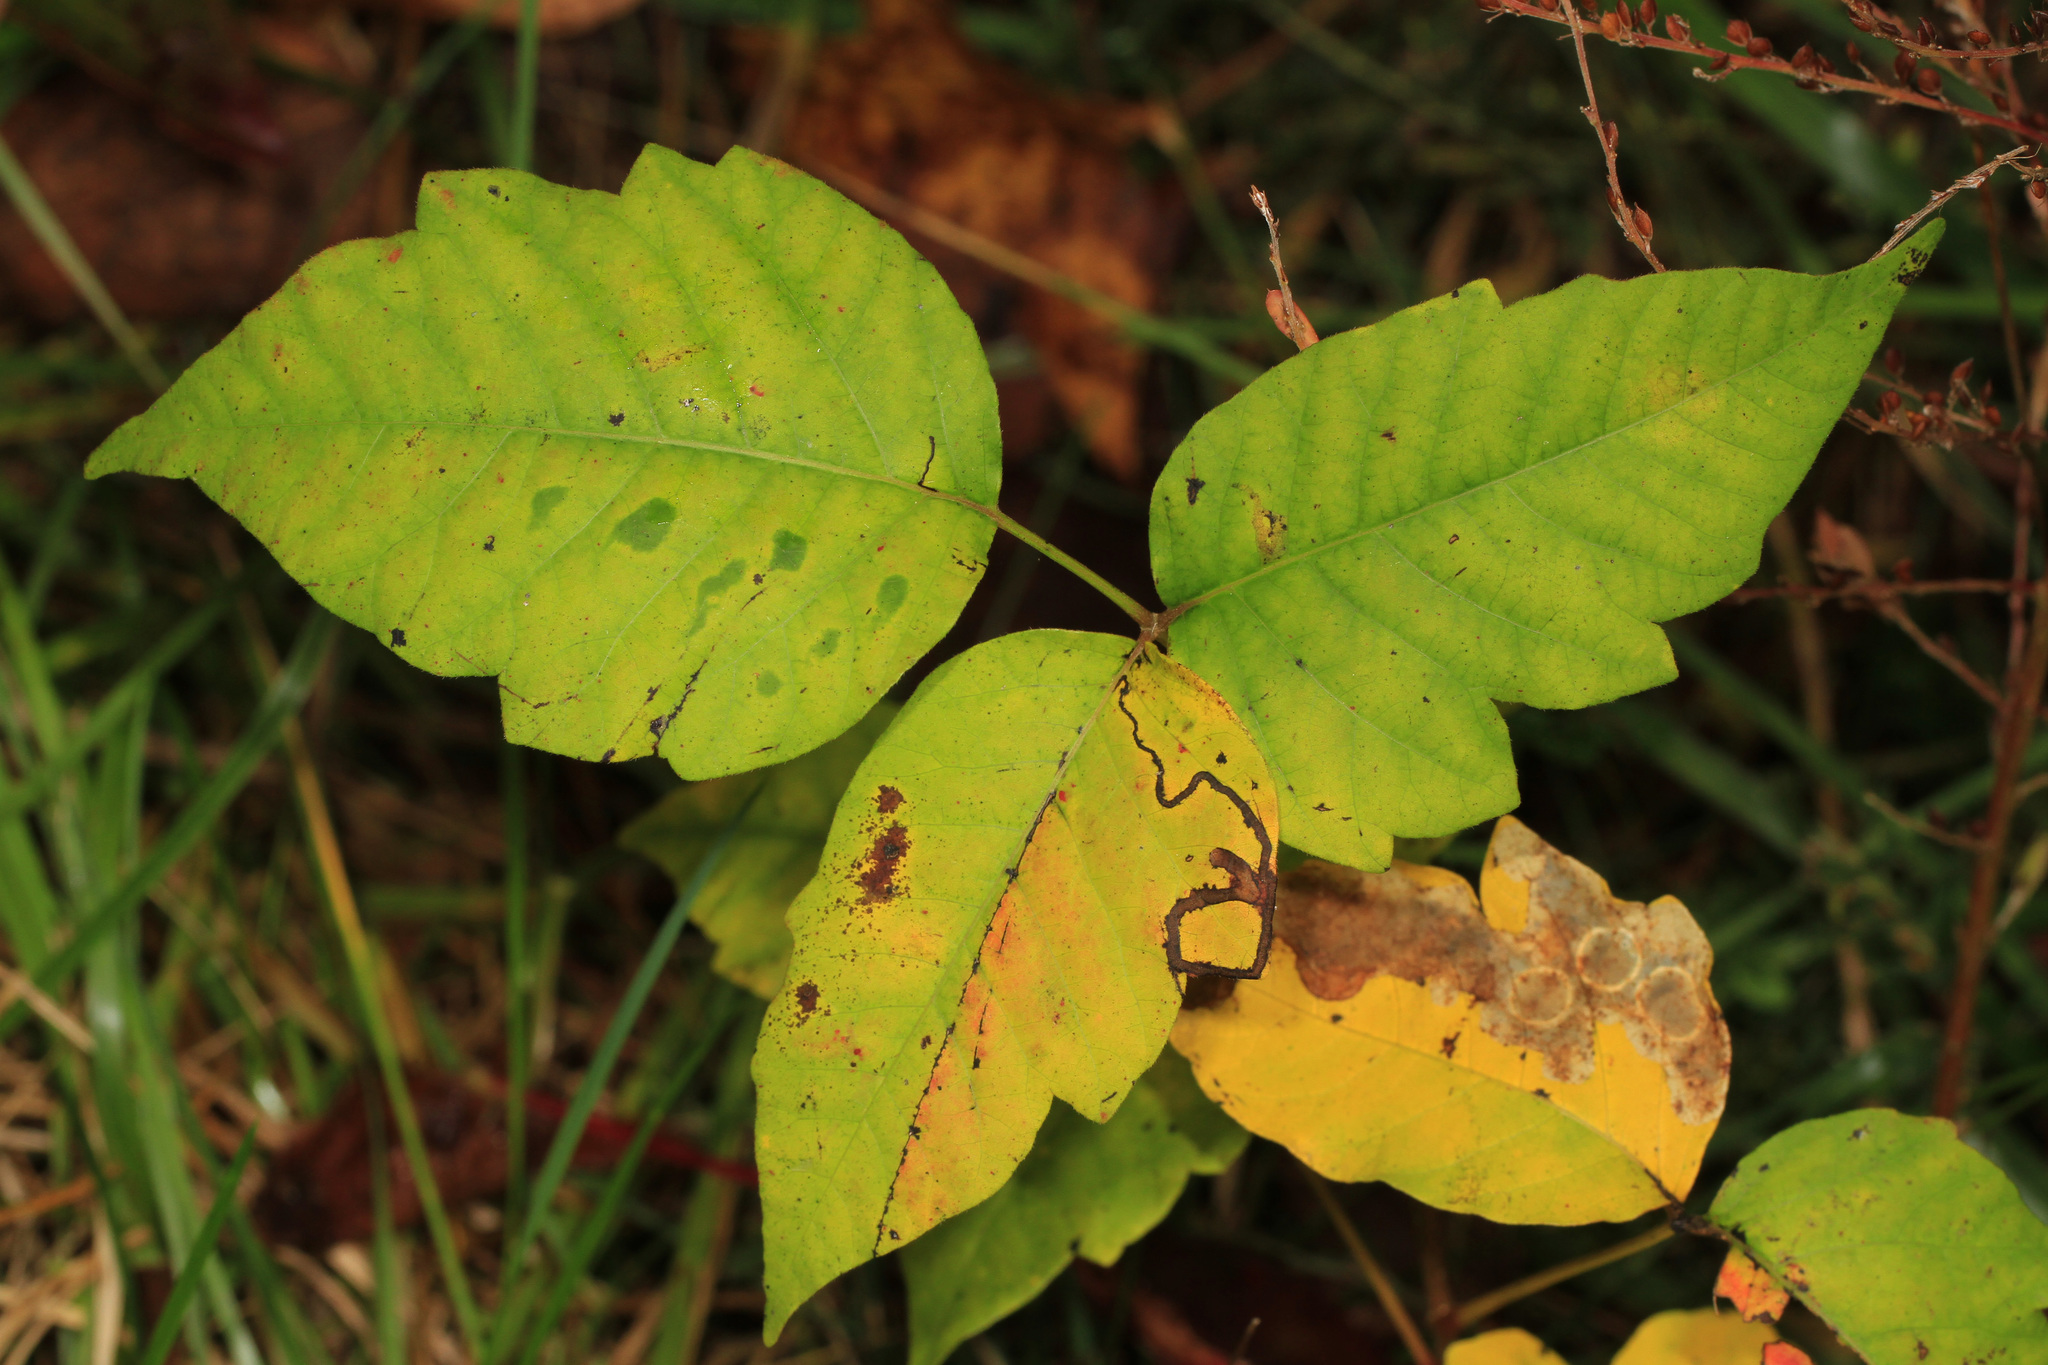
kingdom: Plantae
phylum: Tracheophyta
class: Magnoliopsida
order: Sapindales
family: Anacardiaceae
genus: Toxicodendron
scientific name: Toxicodendron radicans
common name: Poison ivy
